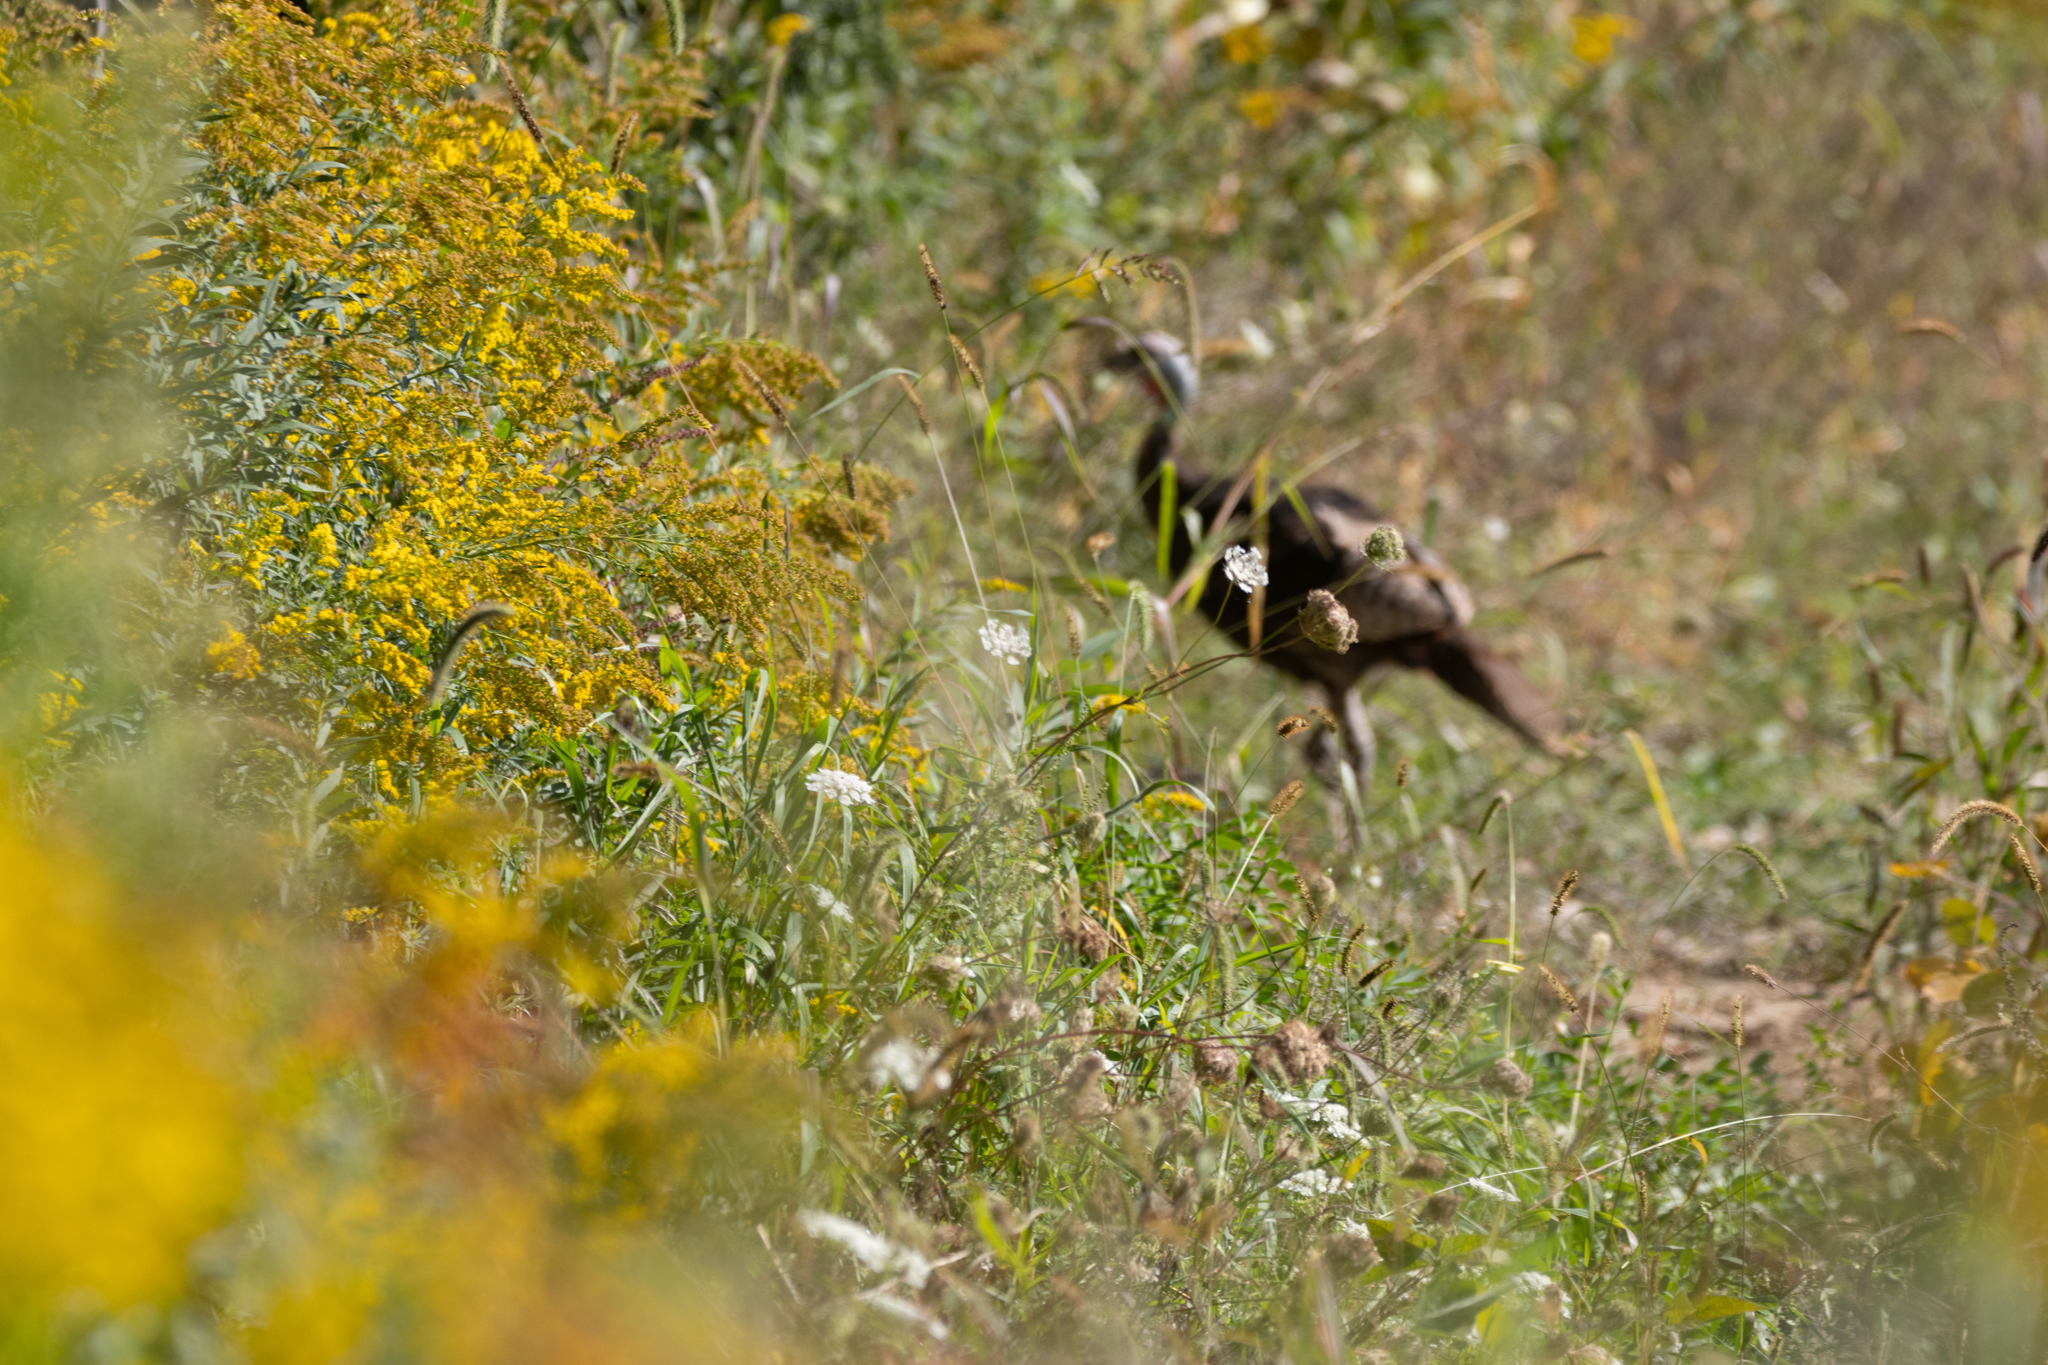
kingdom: Animalia
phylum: Chordata
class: Aves
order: Galliformes
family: Phasianidae
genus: Meleagris
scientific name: Meleagris gallopavo
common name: Wild turkey
